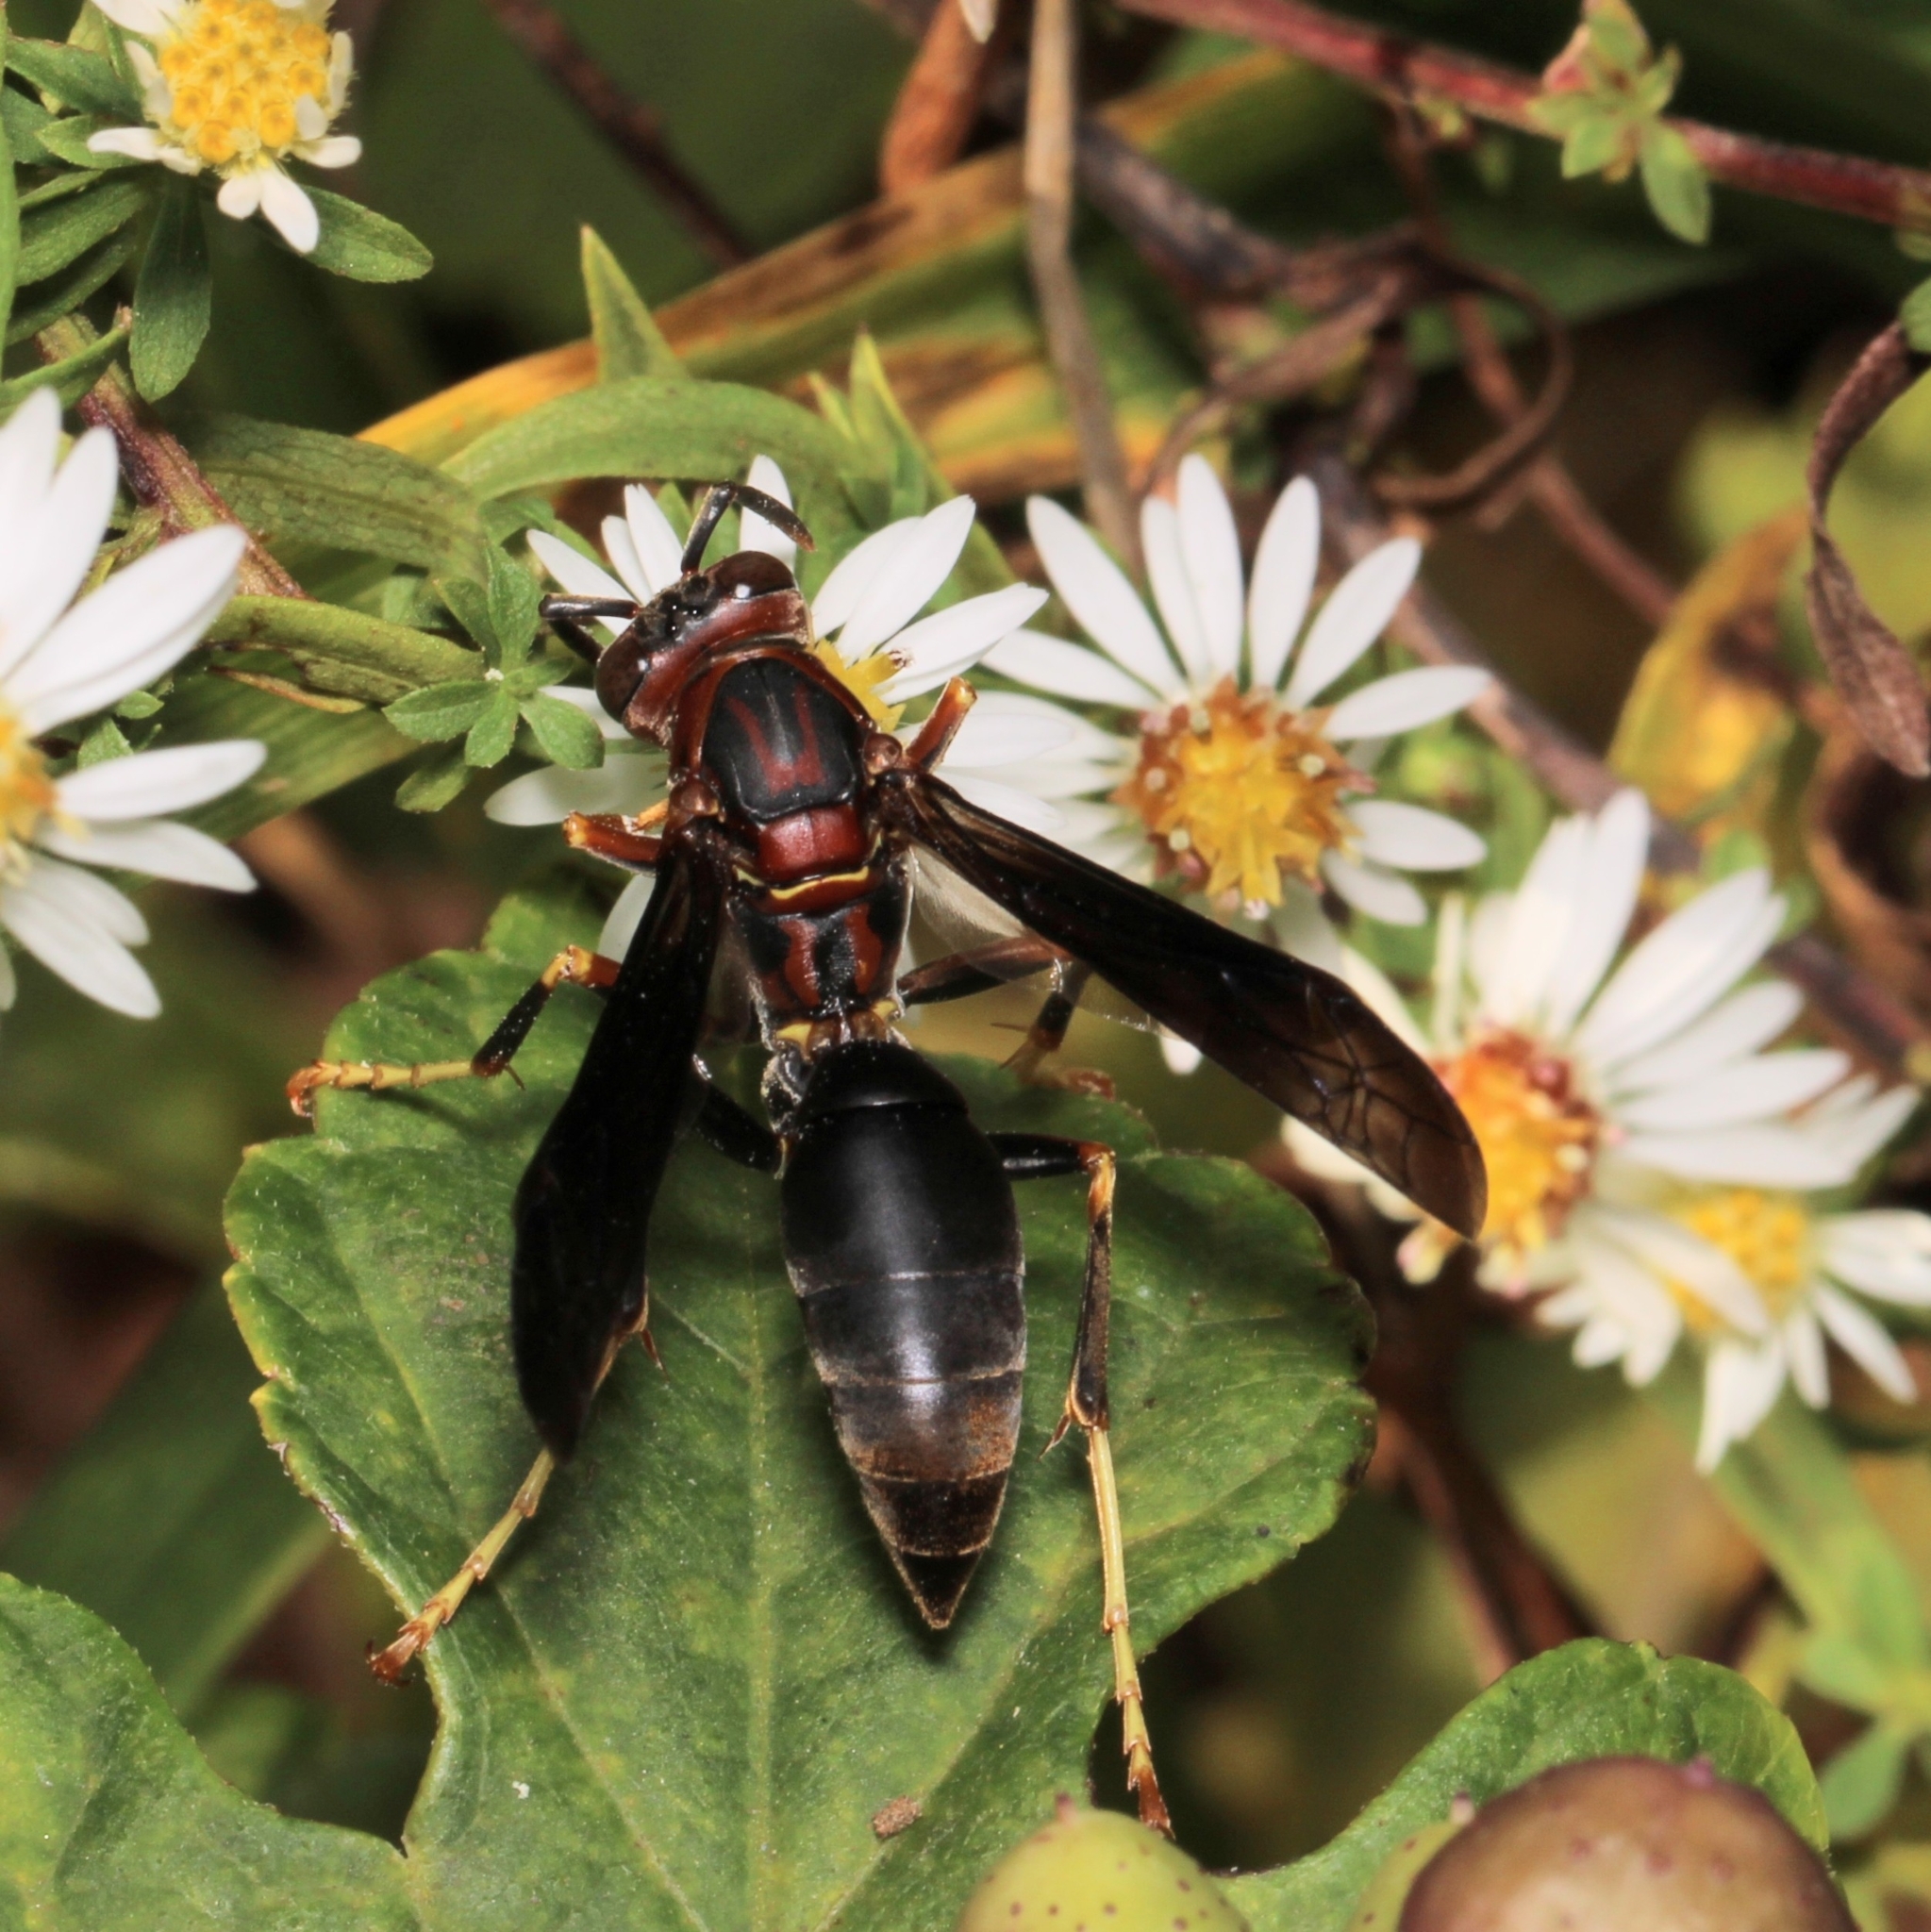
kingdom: Animalia
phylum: Arthropoda
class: Insecta
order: Hymenoptera
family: Eumenidae
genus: Polistes
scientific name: Polistes metricus
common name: Metric paper wasp
